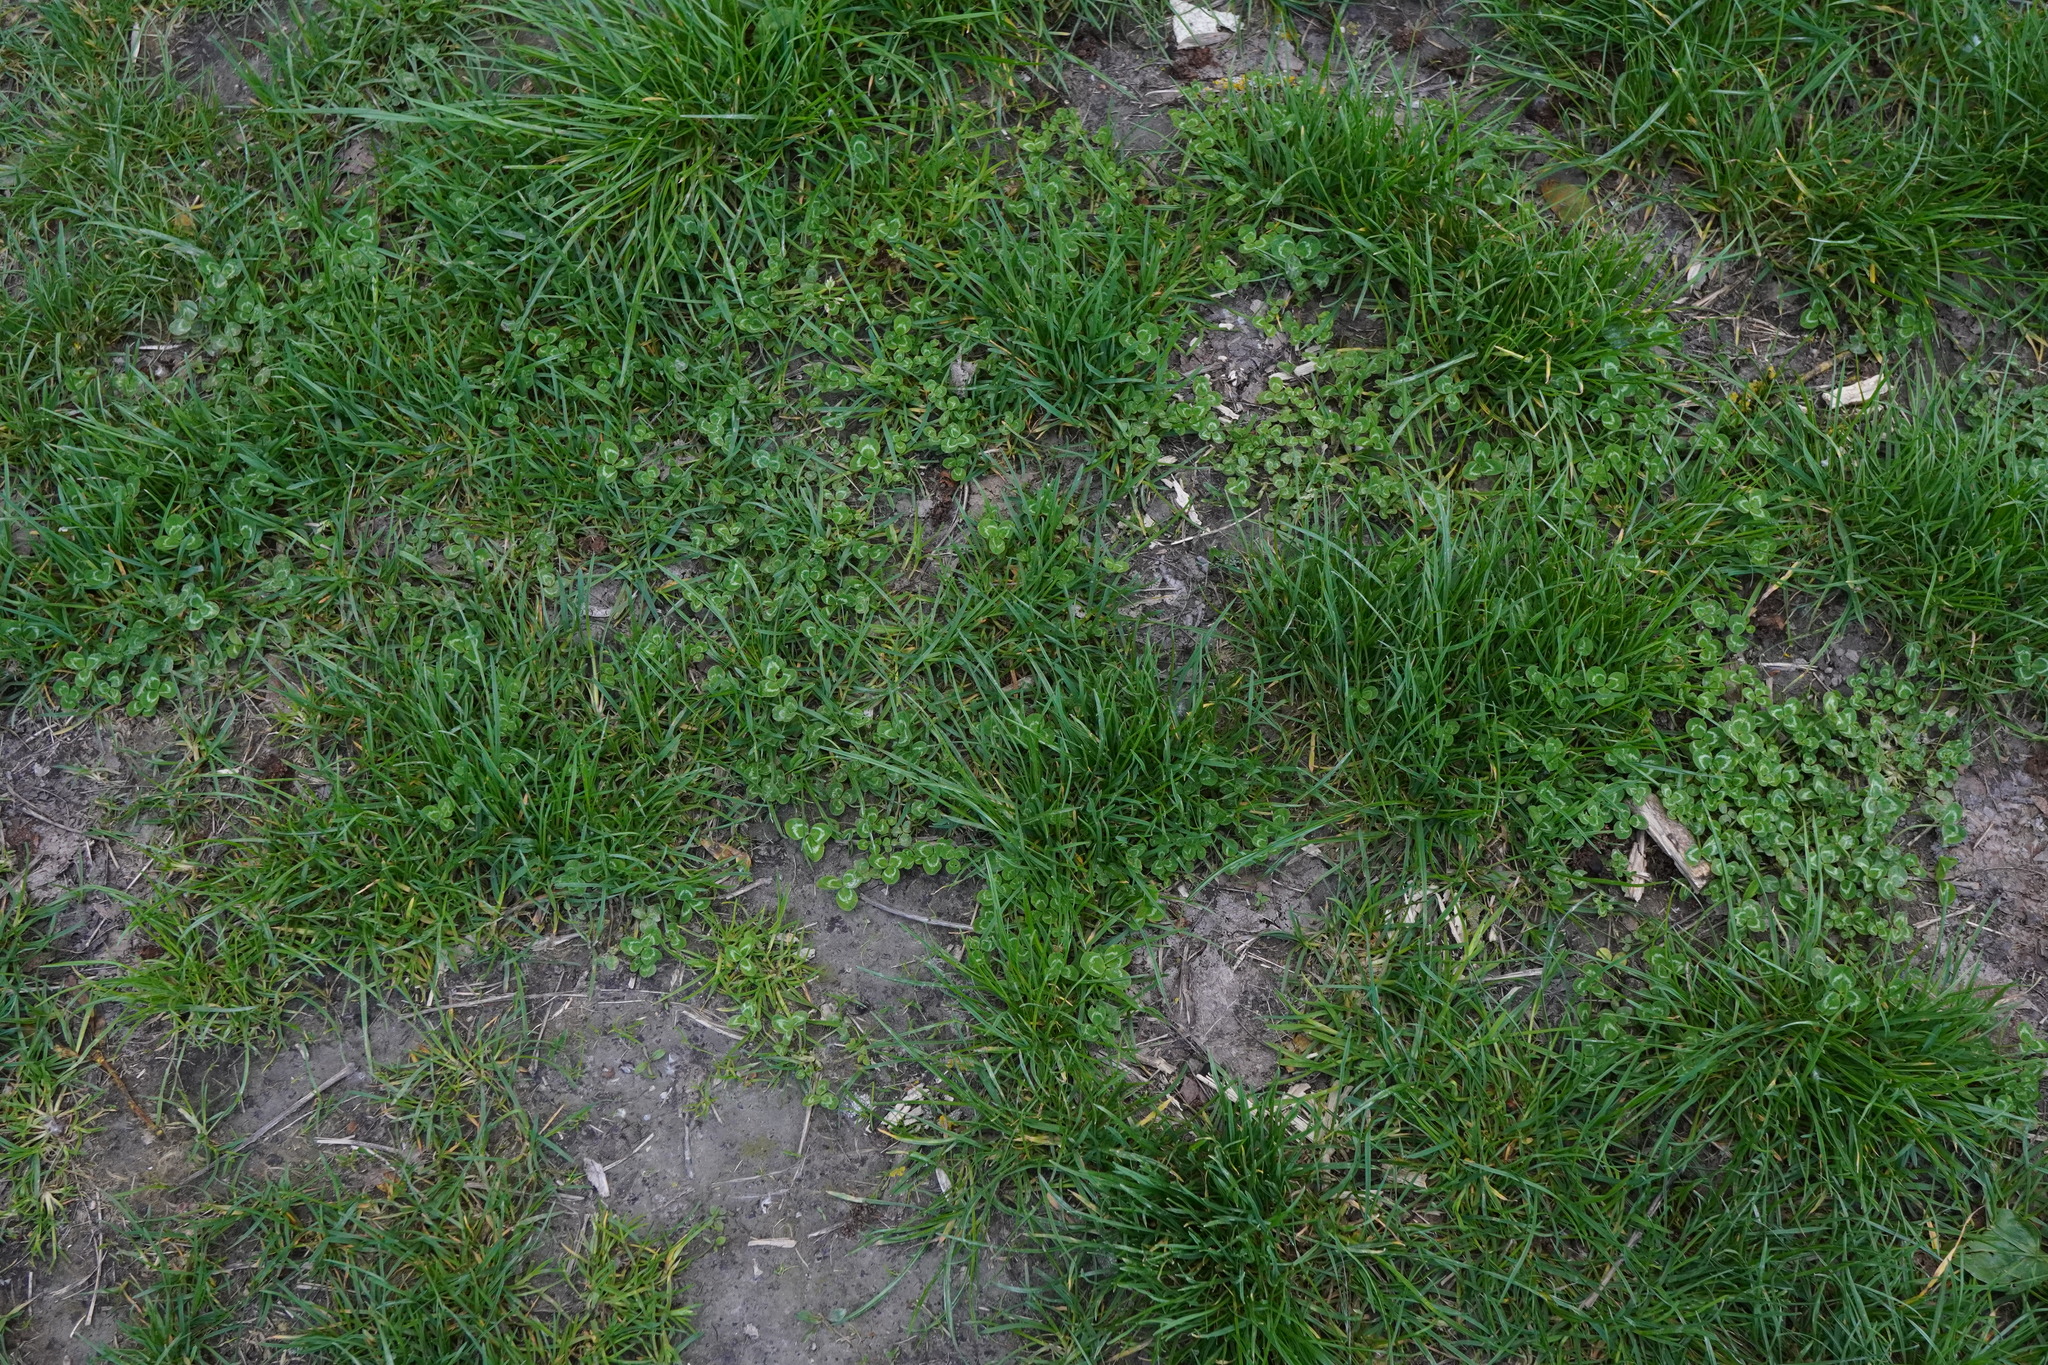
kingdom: Plantae
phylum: Tracheophyta
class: Magnoliopsida
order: Fabales
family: Fabaceae
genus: Trifolium
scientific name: Trifolium repens
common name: White clover
